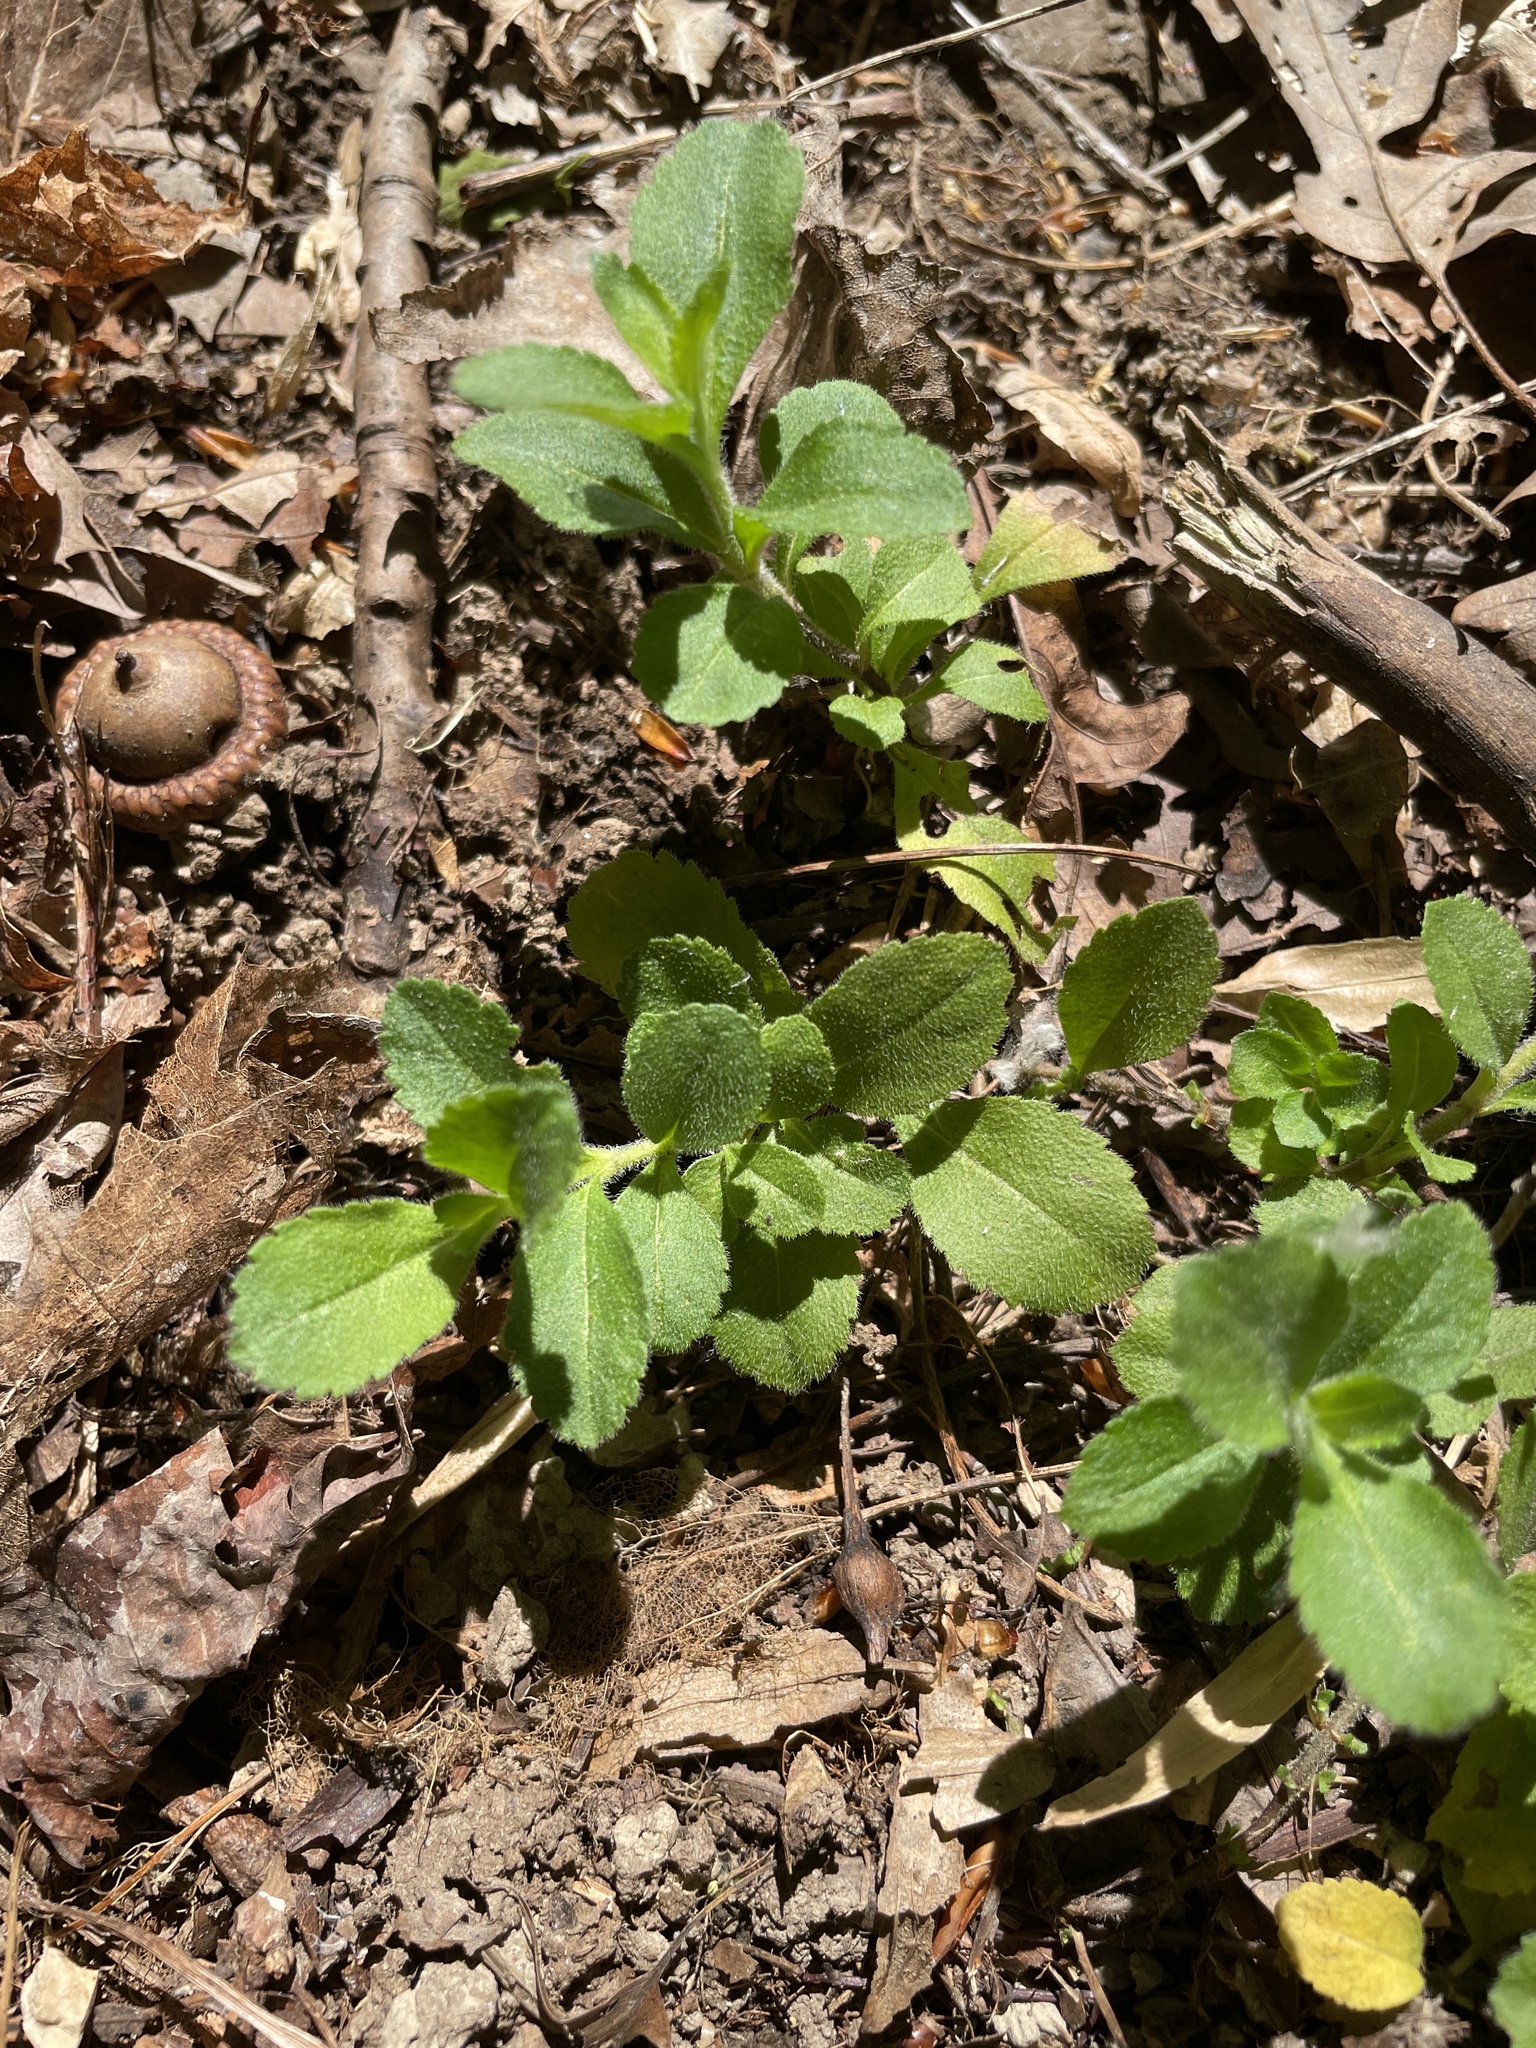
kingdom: Plantae
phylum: Tracheophyta
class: Magnoliopsida
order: Lamiales
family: Plantaginaceae
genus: Veronica
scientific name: Veronica officinalis
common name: Common speedwell
